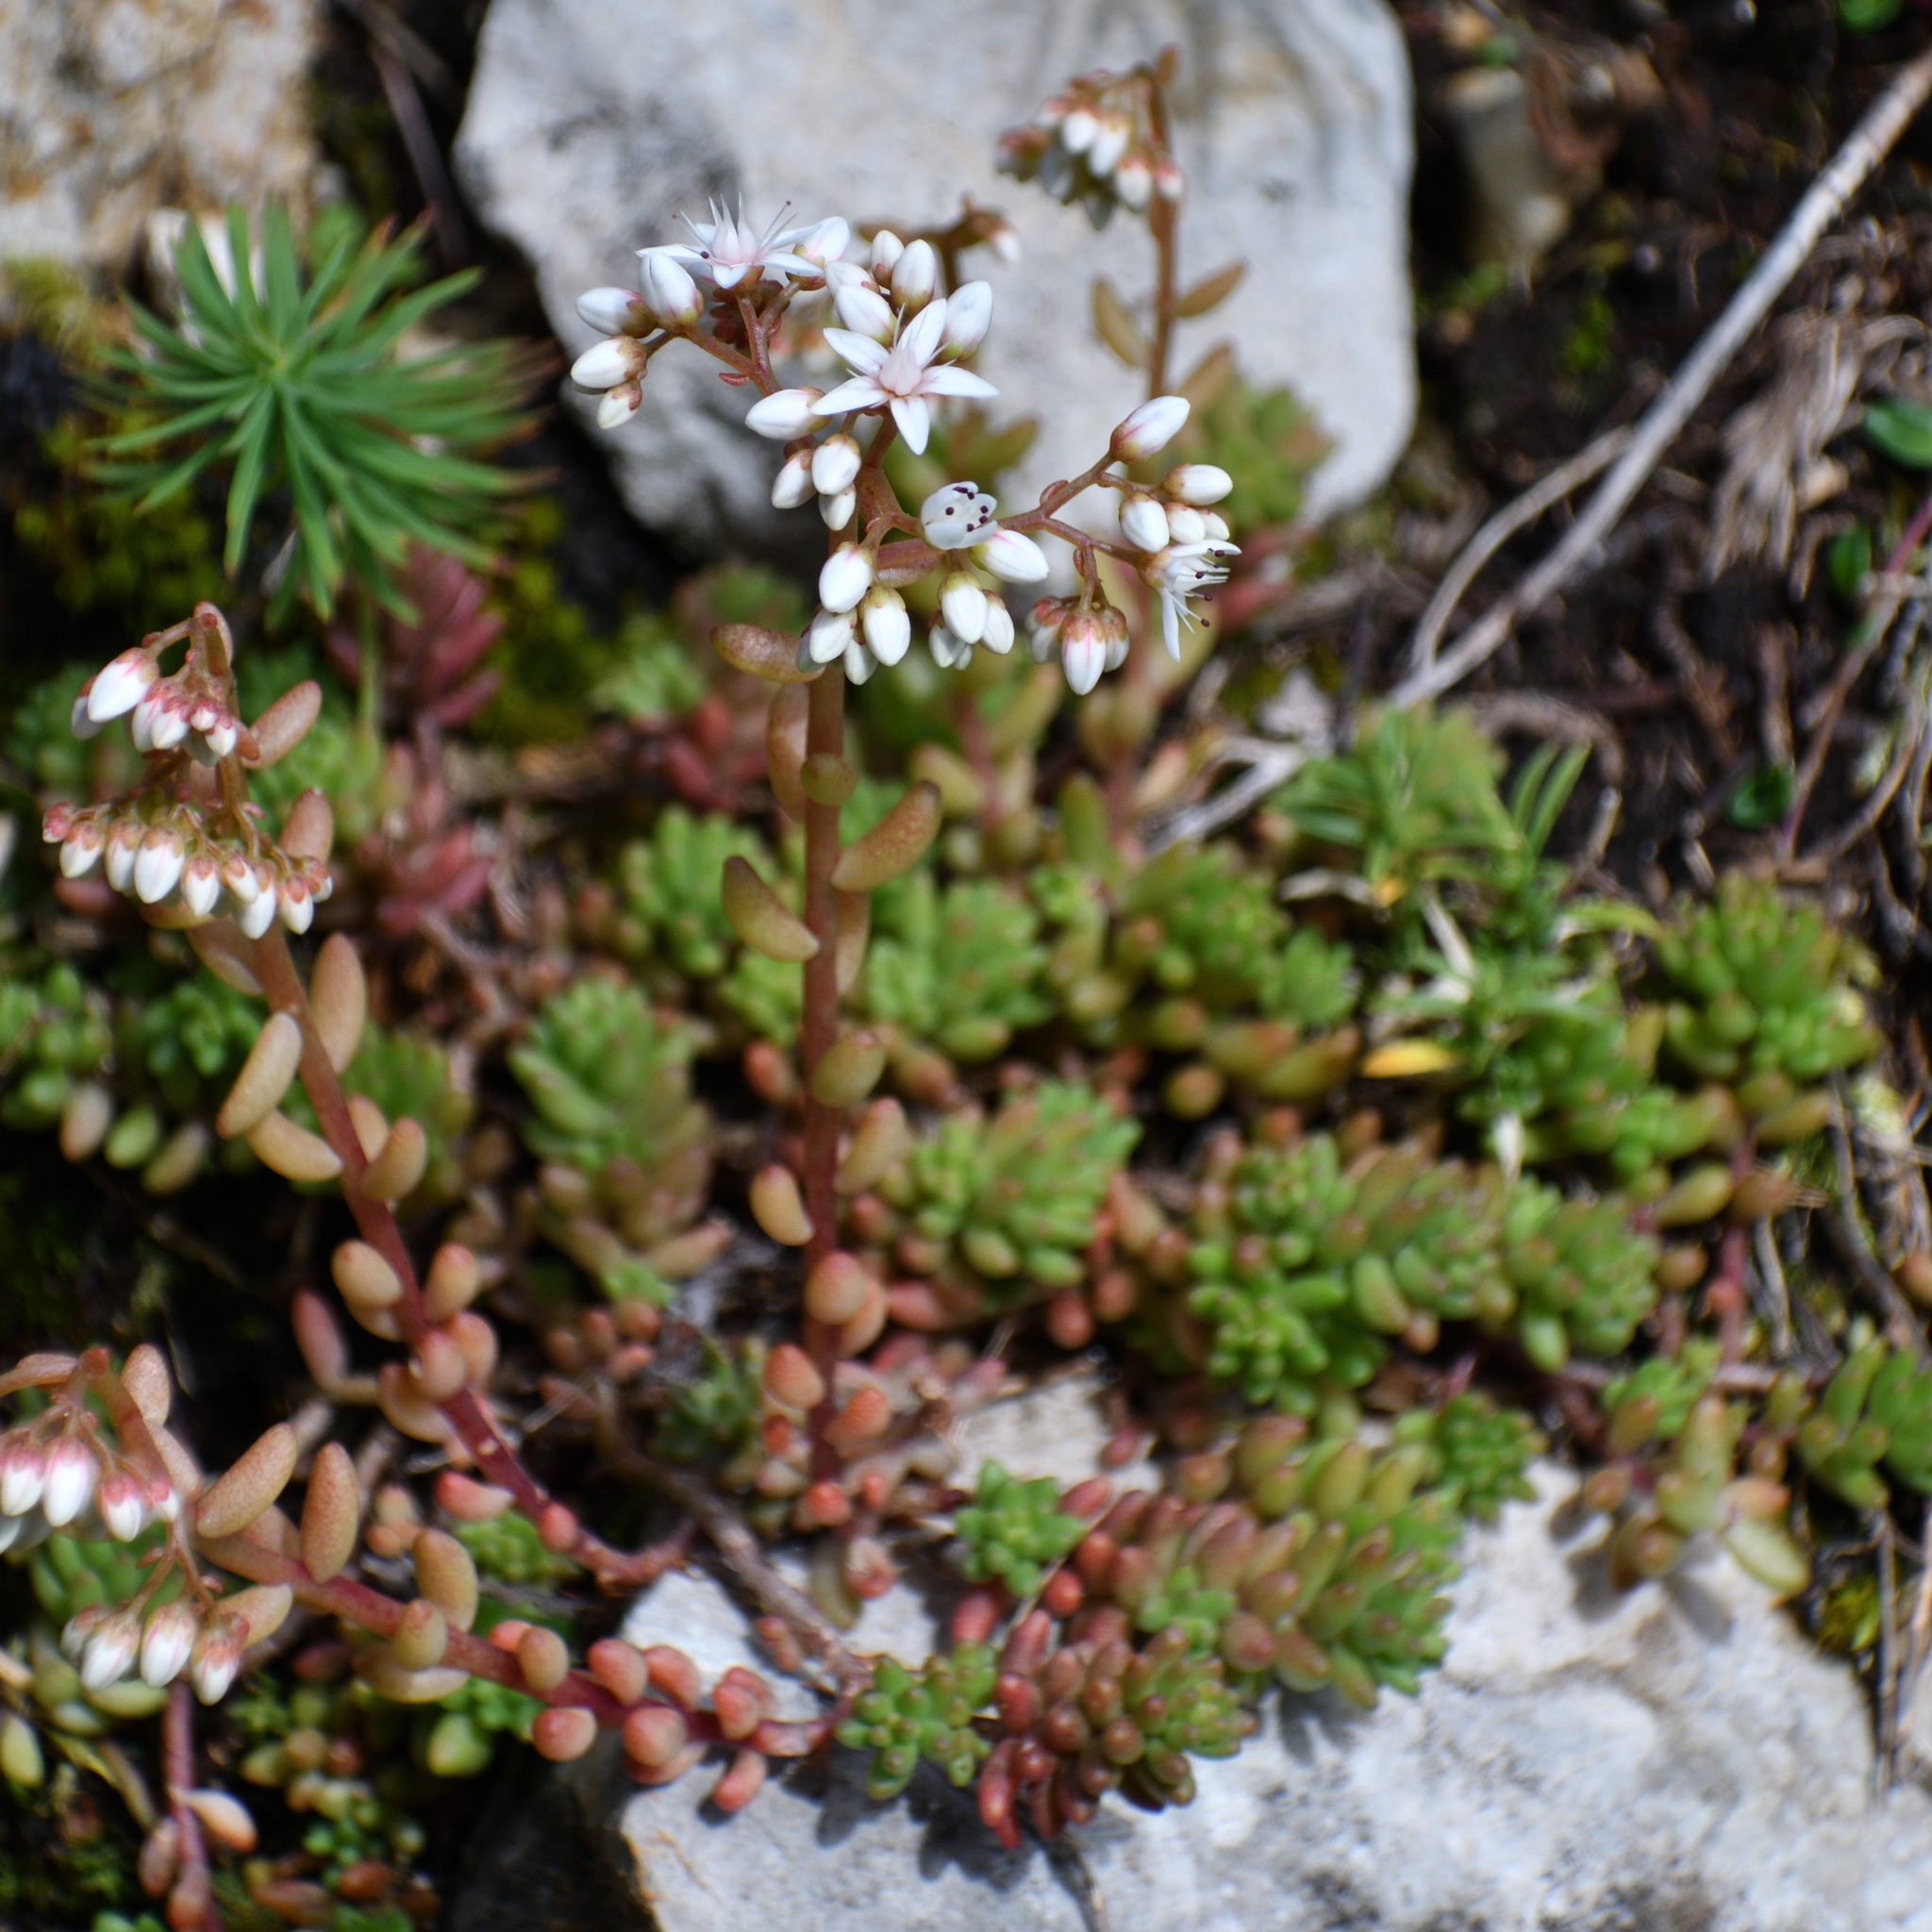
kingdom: Plantae
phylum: Tracheophyta
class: Magnoliopsida
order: Saxifragales
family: Crassulaceae
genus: Sedum
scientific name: Sedum album
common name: White stonecrop
